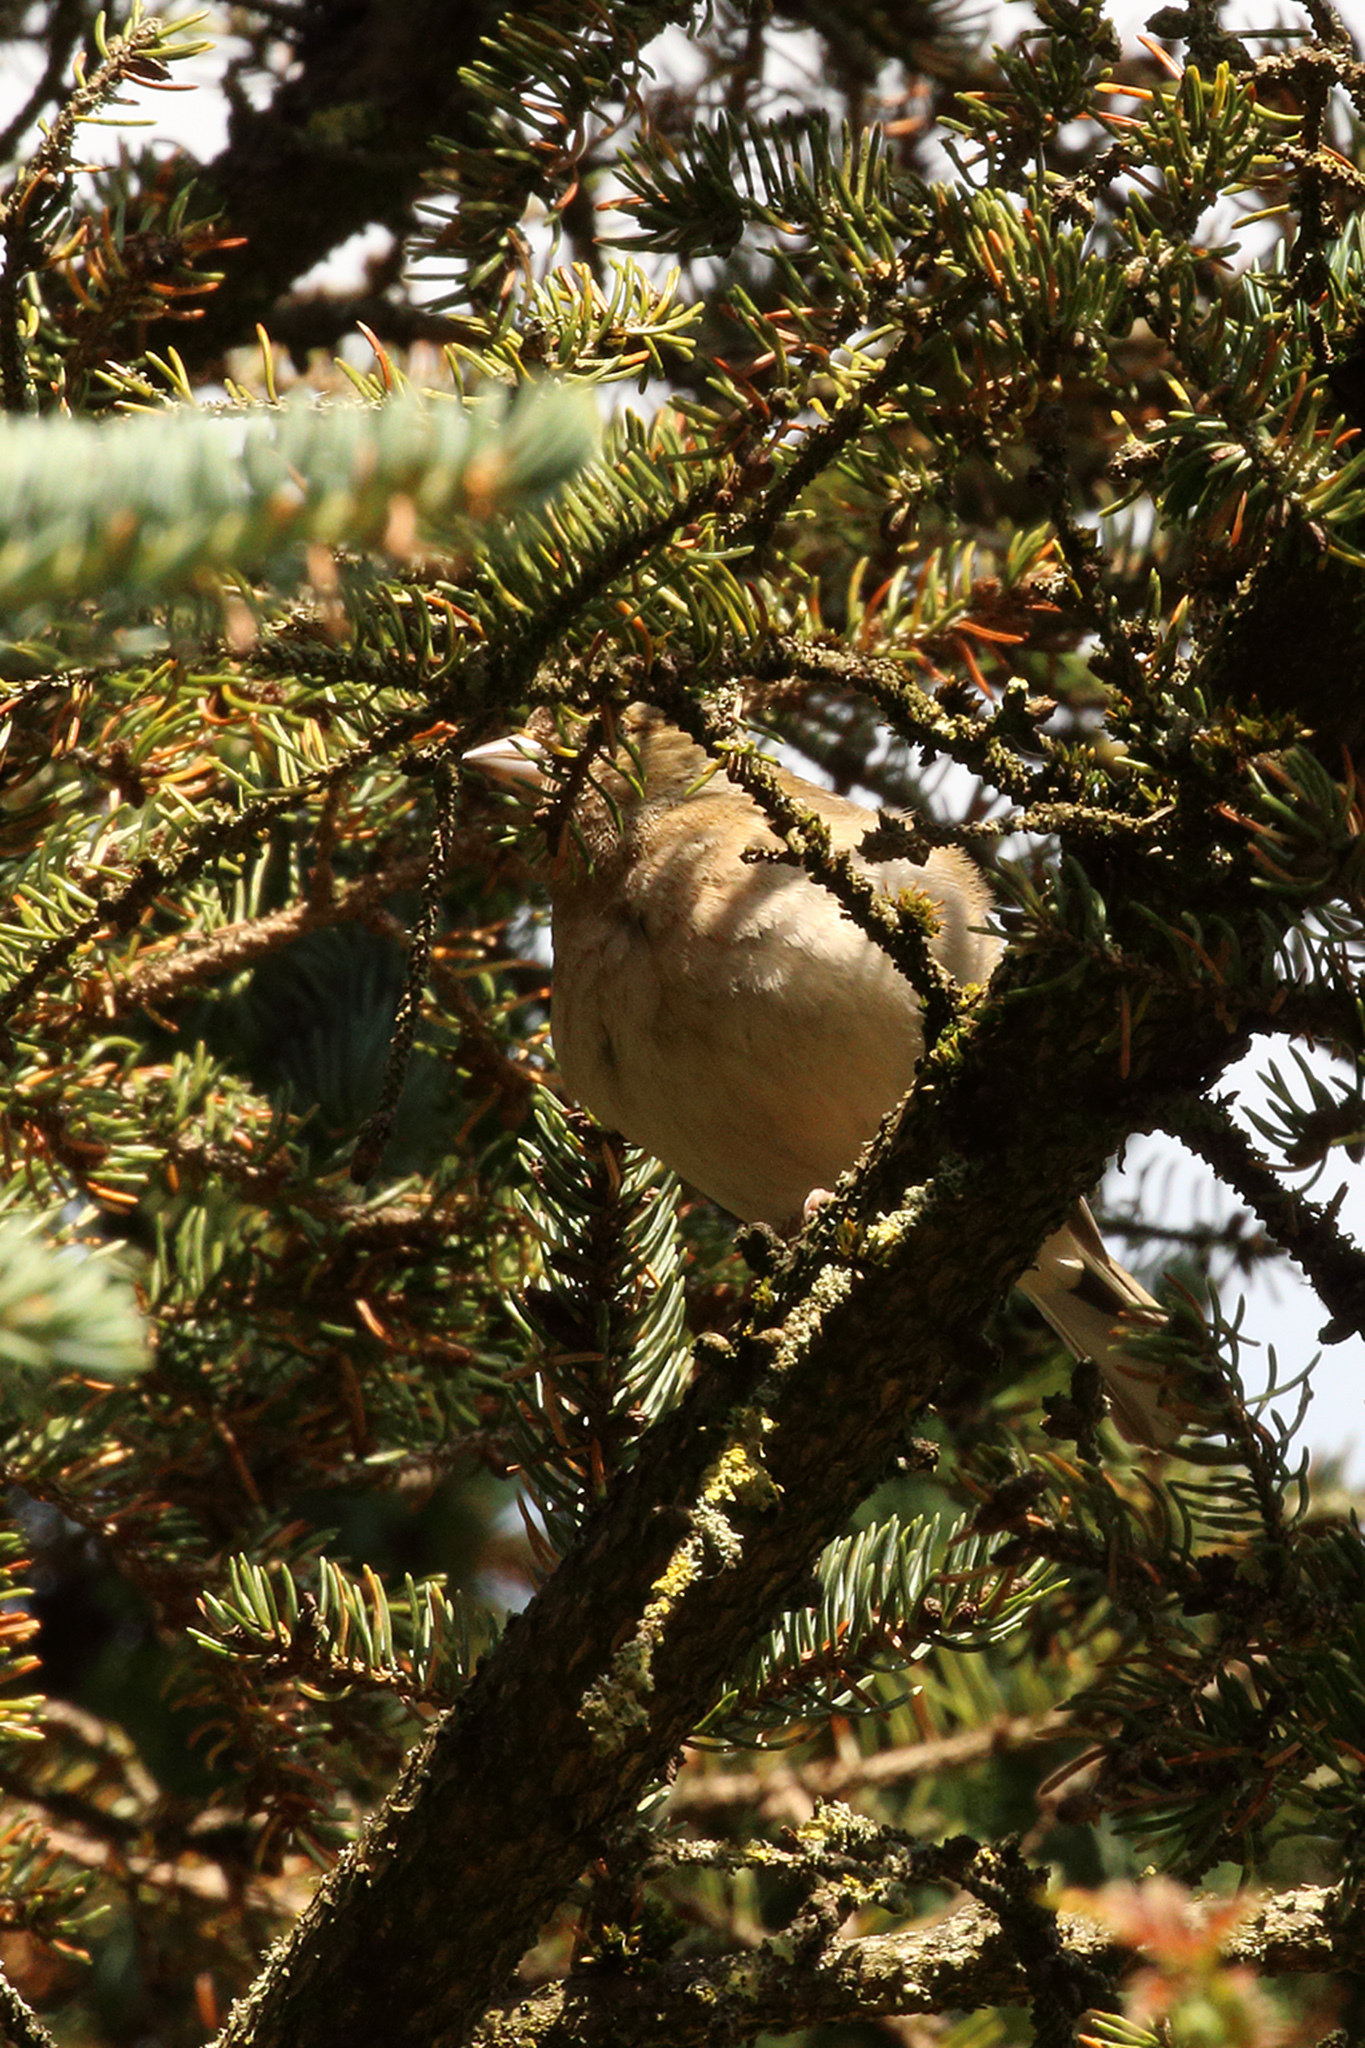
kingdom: Animalia
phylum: Chordata
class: Aves
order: Passeriformes
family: Fringillidae
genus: Fringilla
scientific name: Fringilla coelebs
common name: Common chaffinch
